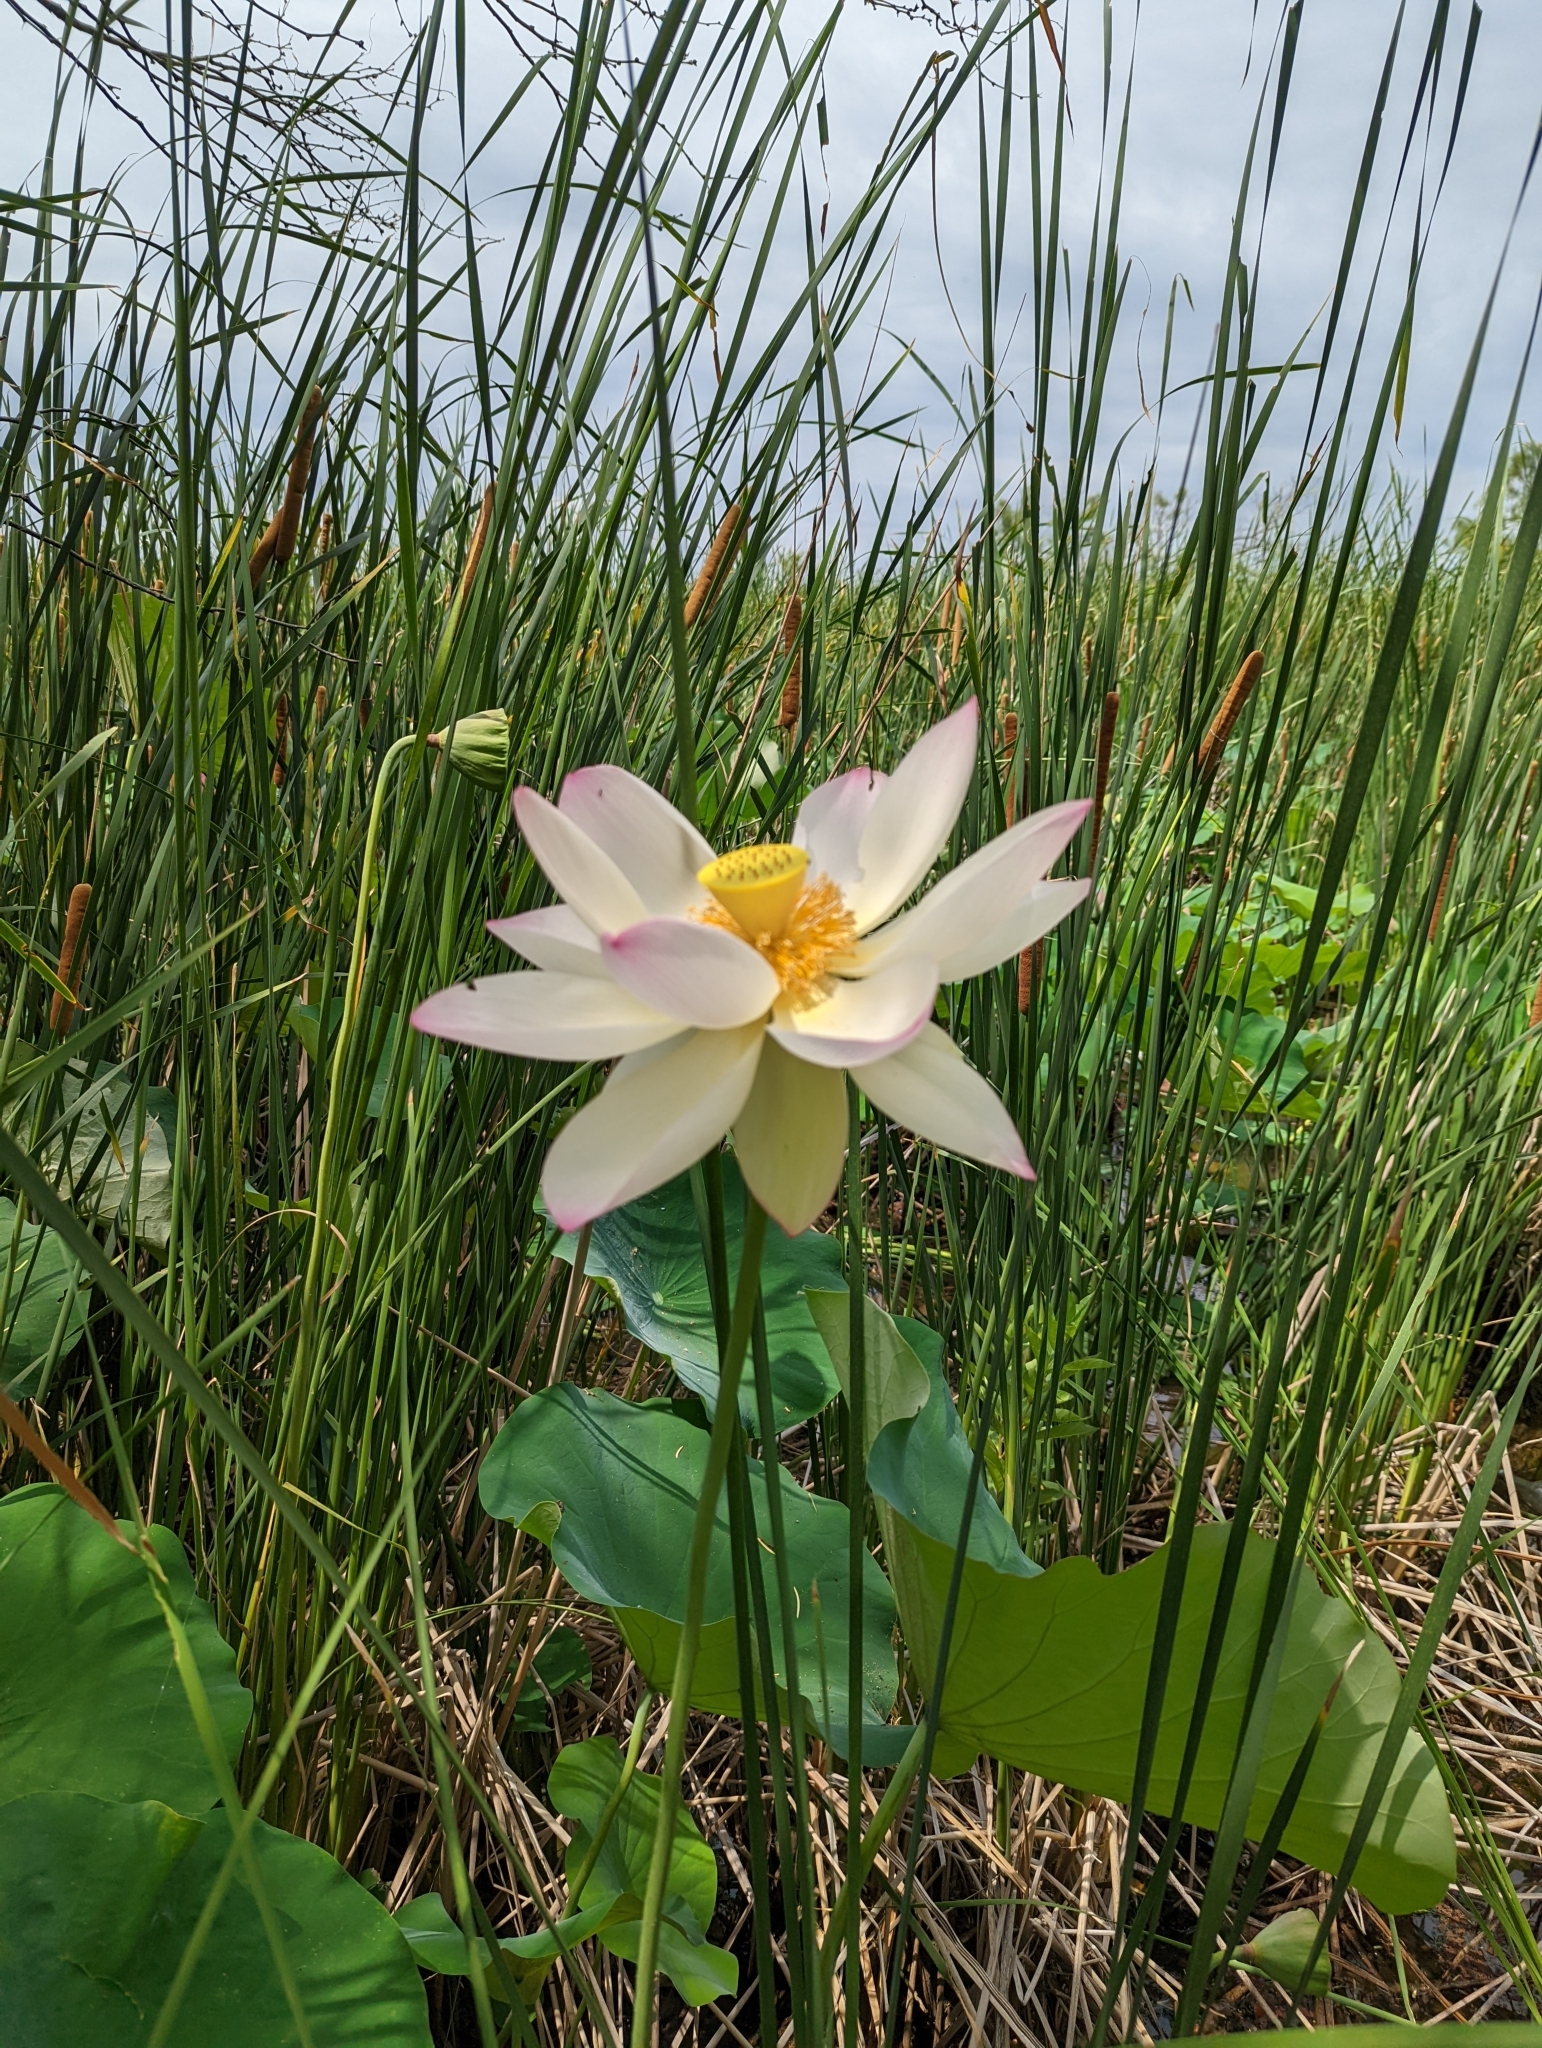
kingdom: Plantae
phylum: Tracheophyta
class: Magnoliopsida
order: Proteales
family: Nelumbonaceae
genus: Nelumbo
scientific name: Nelumbo lutea
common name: American lotus
